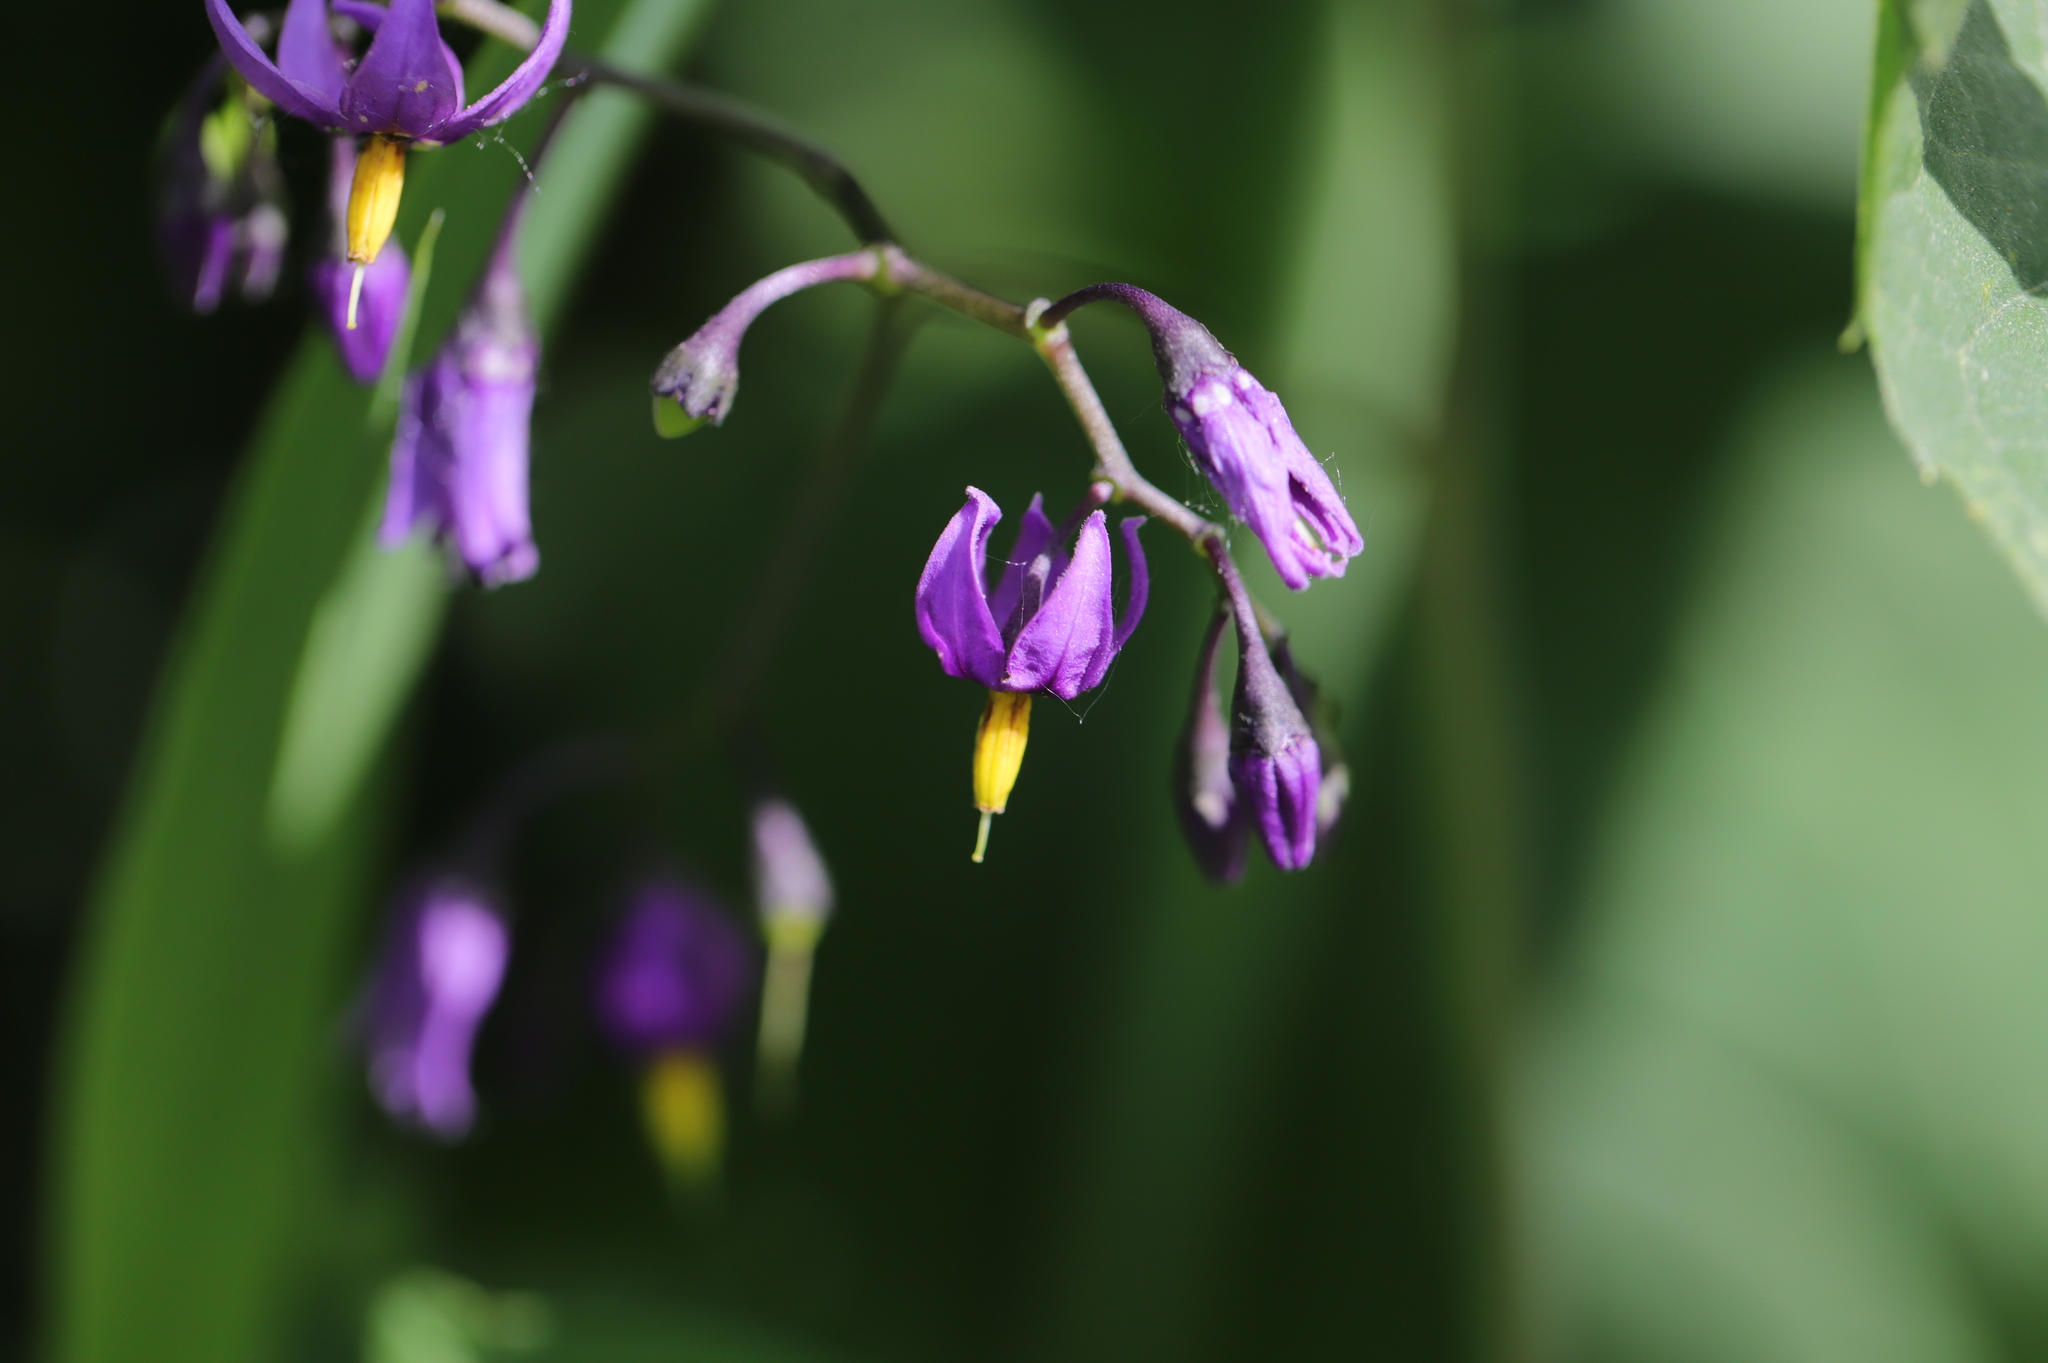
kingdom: Plantae
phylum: Tracheophyta
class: Magnoliopsida
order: Solanales
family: Solanaceae
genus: Solanum
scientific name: Solanum dulcamara
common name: Climbing nightshade
